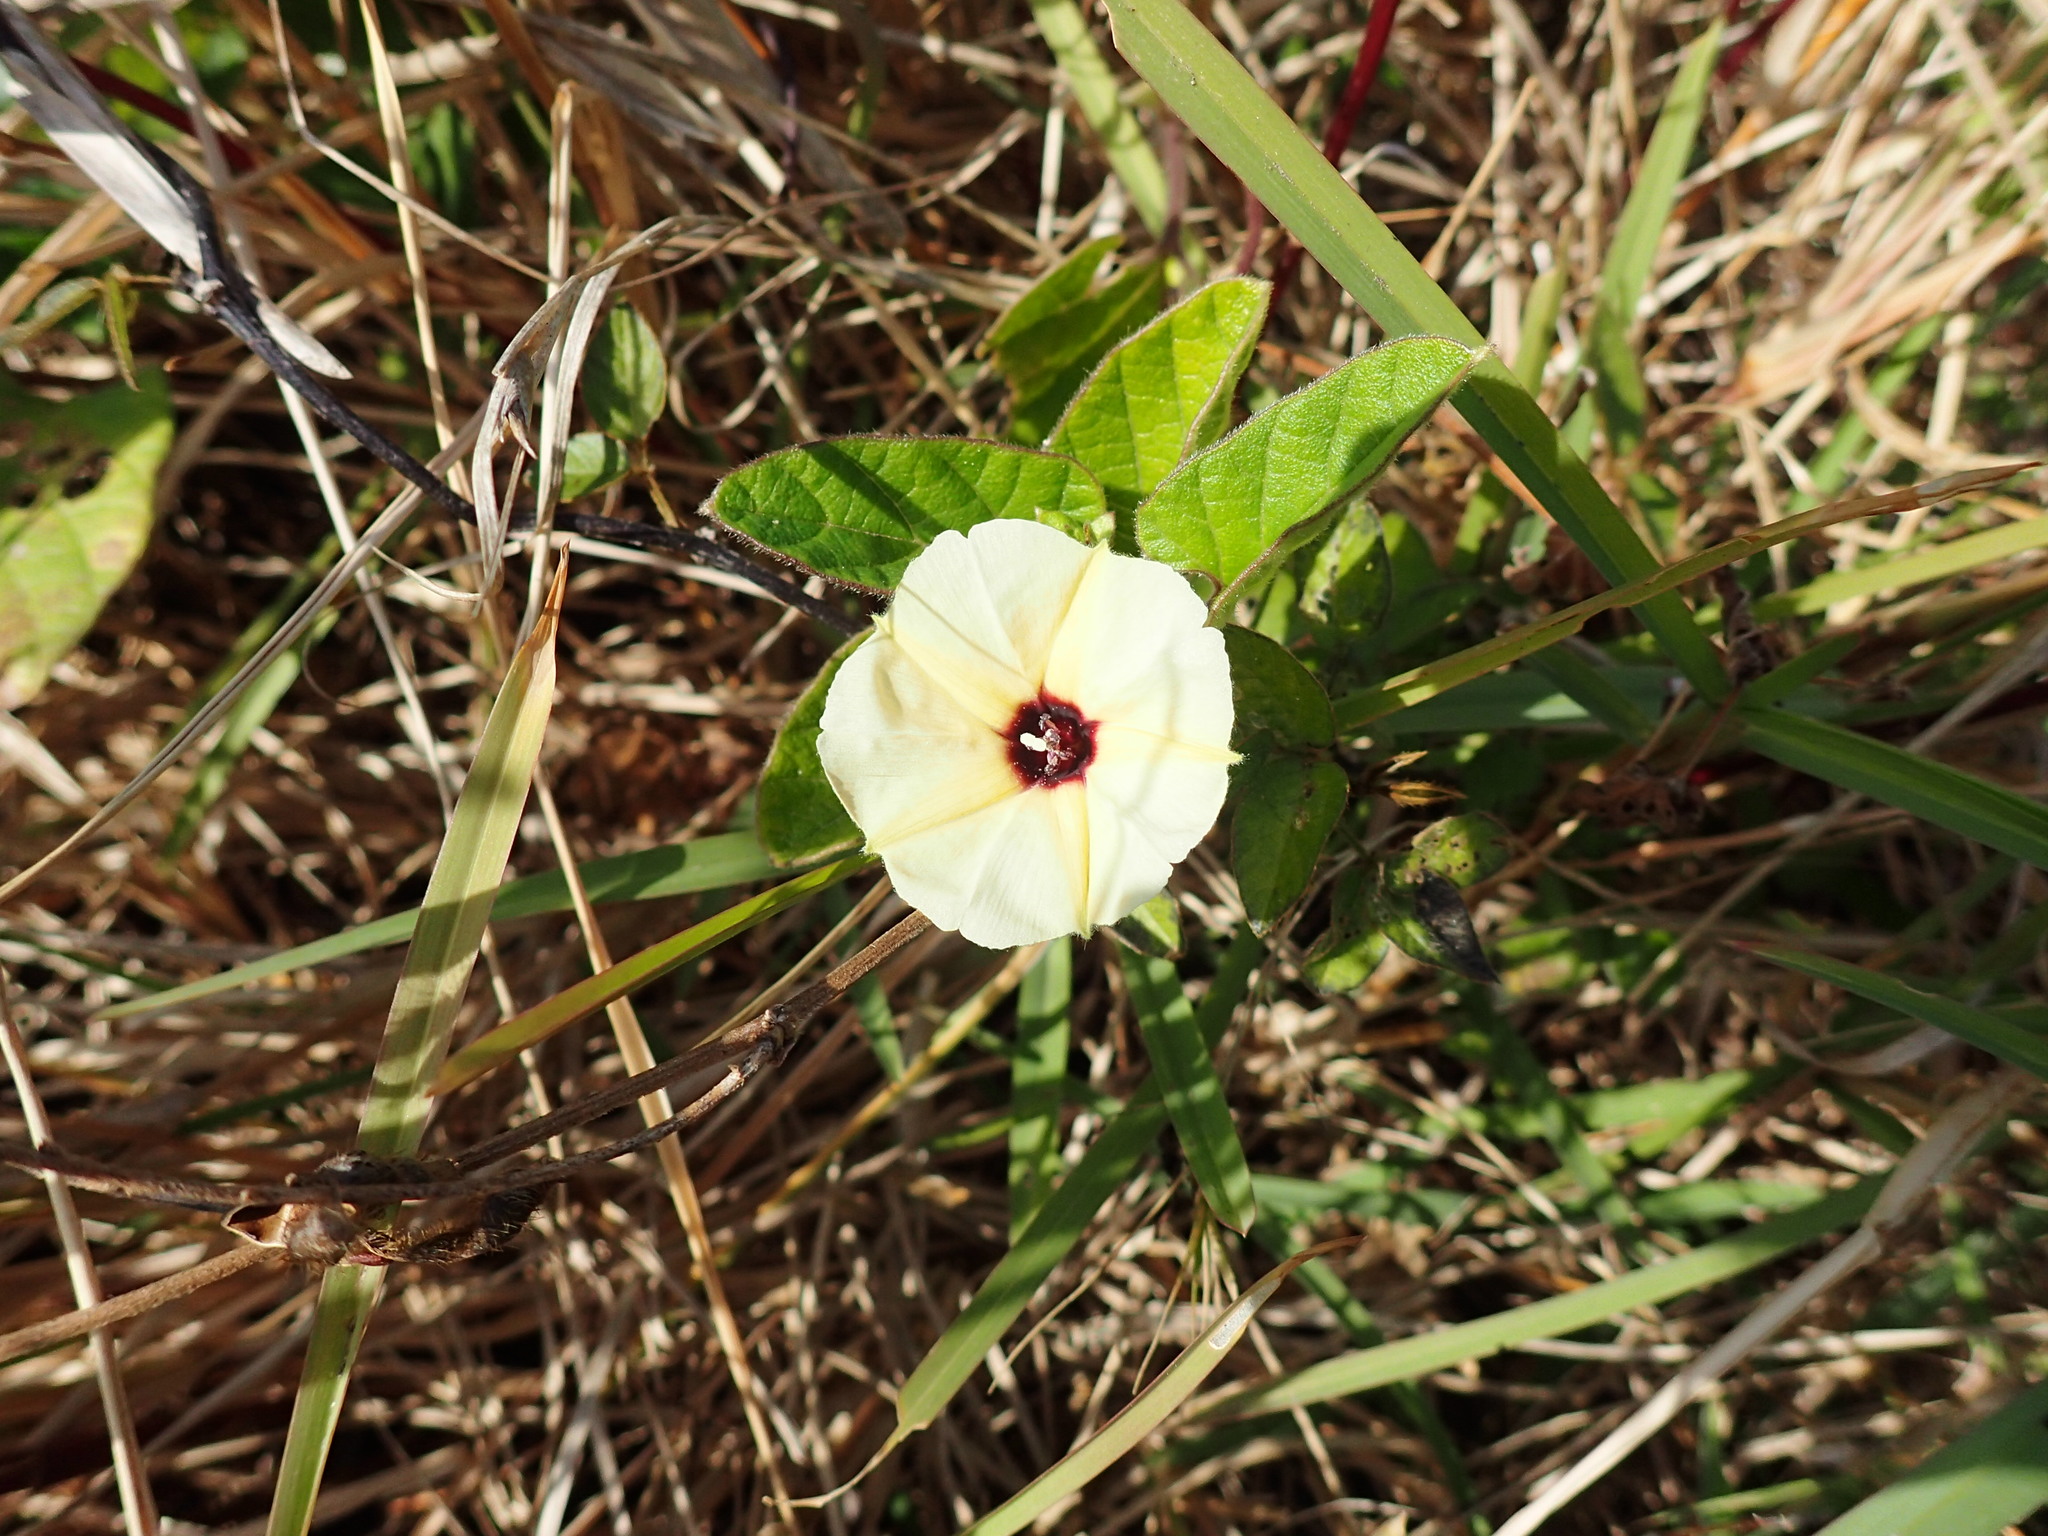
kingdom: Plantae
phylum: Tracheophyta
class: Magnoliopsida
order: Solanales
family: Convolvulaceae
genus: Hewittia
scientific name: Hewittia malabarica
